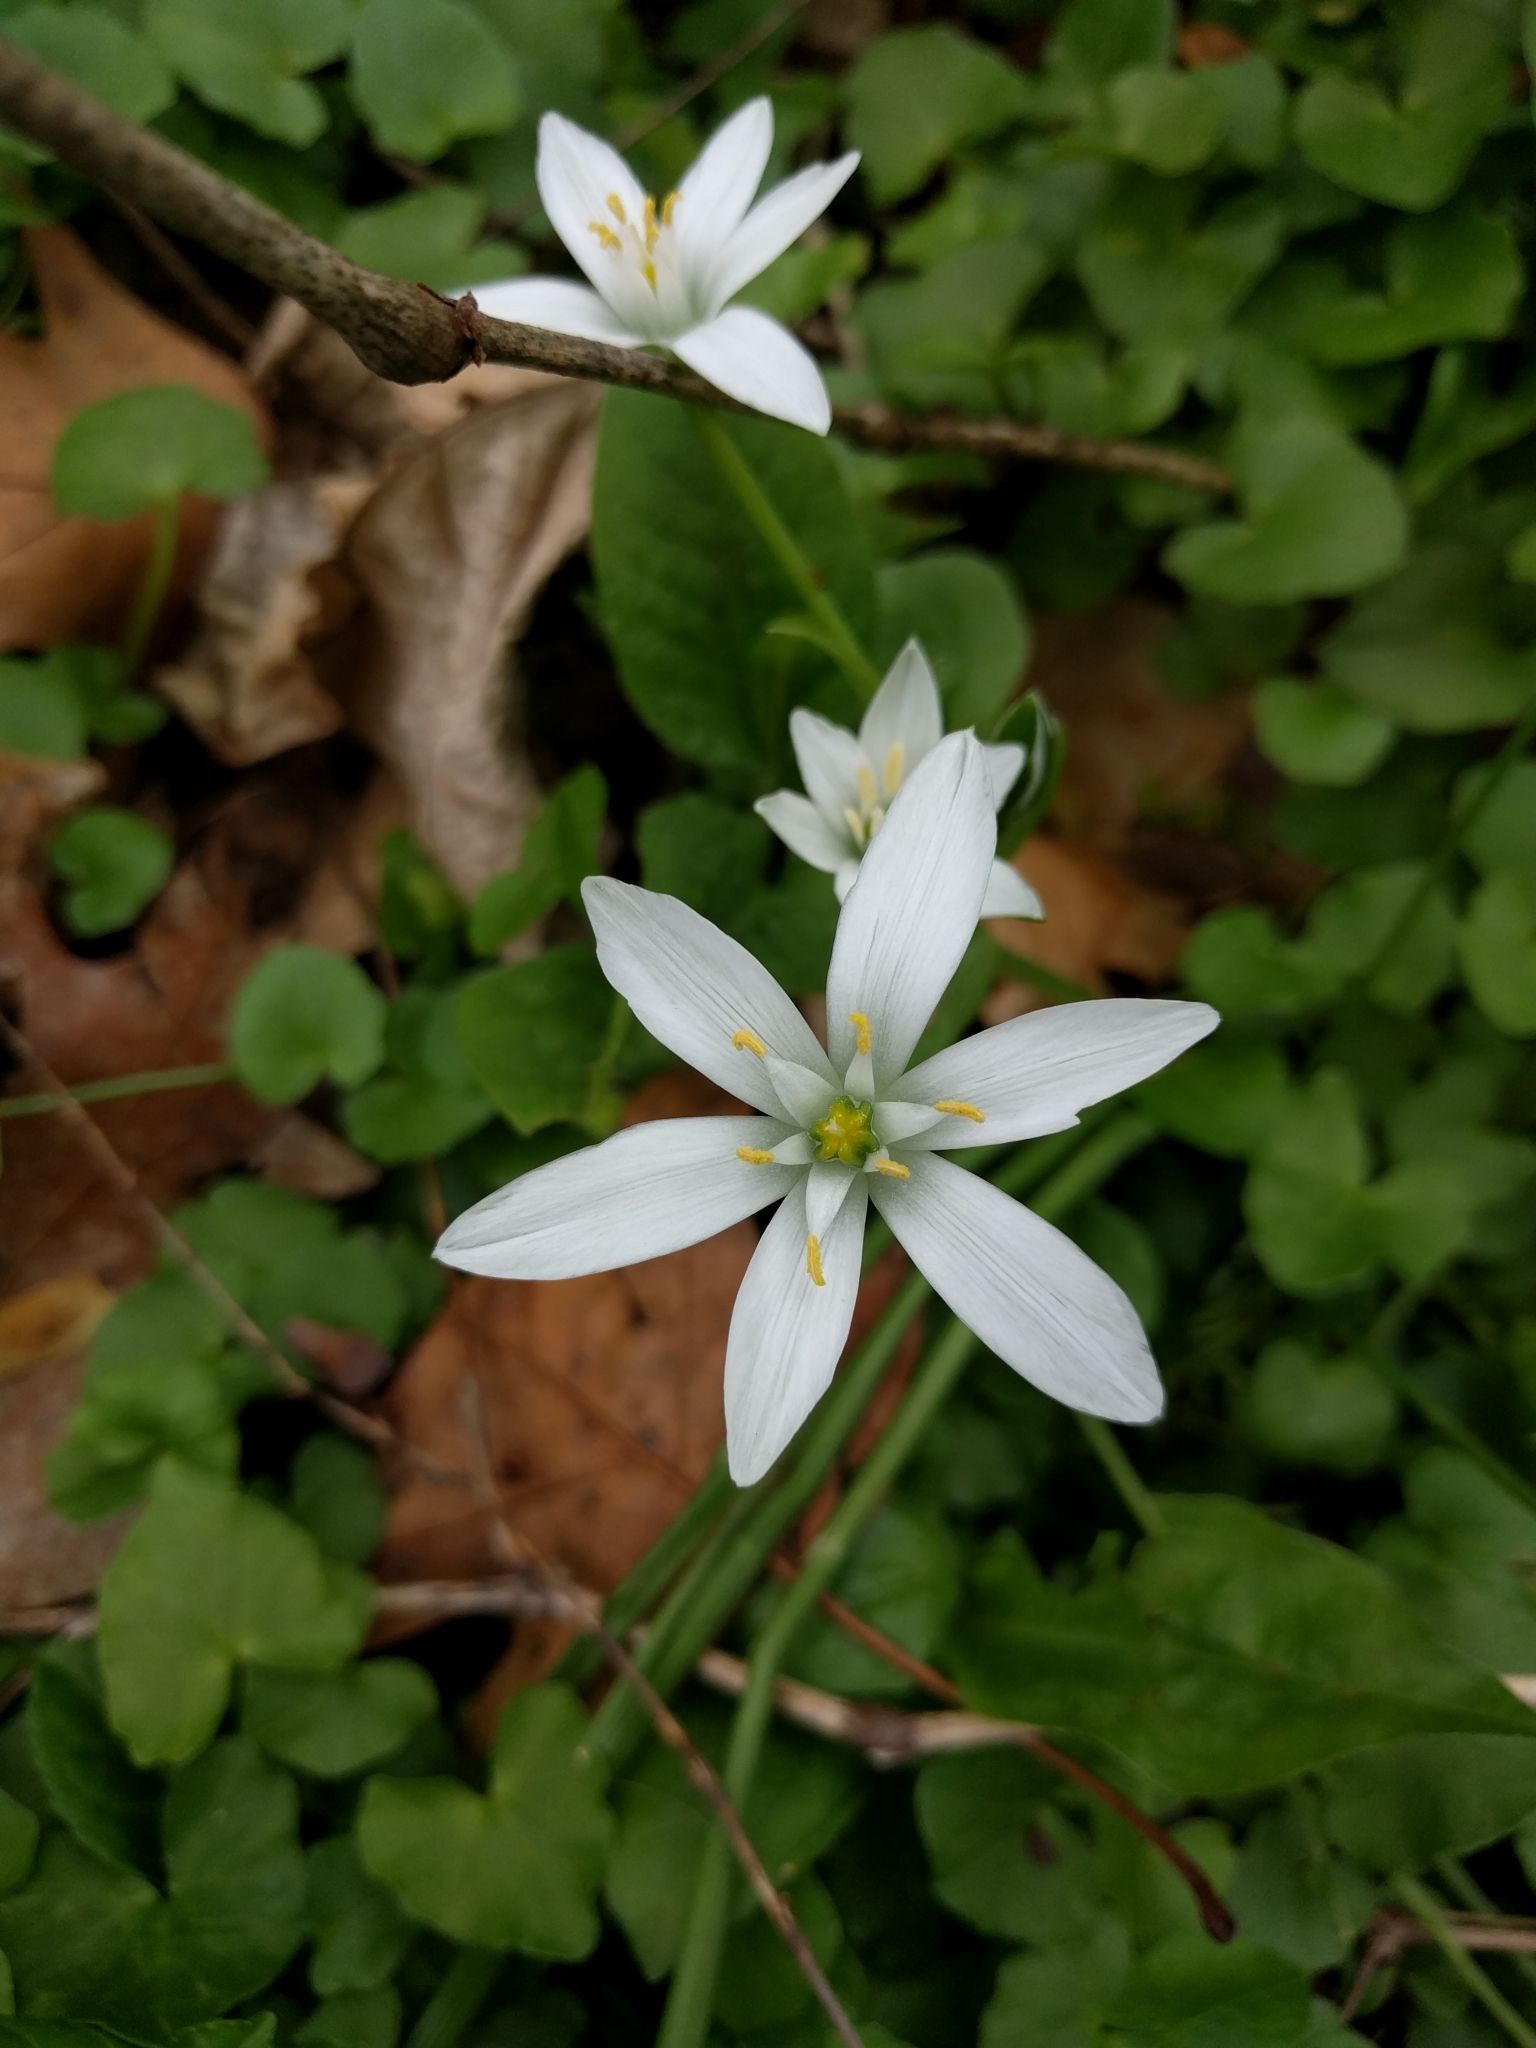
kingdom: Plantae
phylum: Tracheophyta
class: Liliopsida
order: Asparagales
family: Asparagaceae
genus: Ornithogalum
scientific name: Ornithogalum umbellatum
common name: Garden star-of-bethlehem
